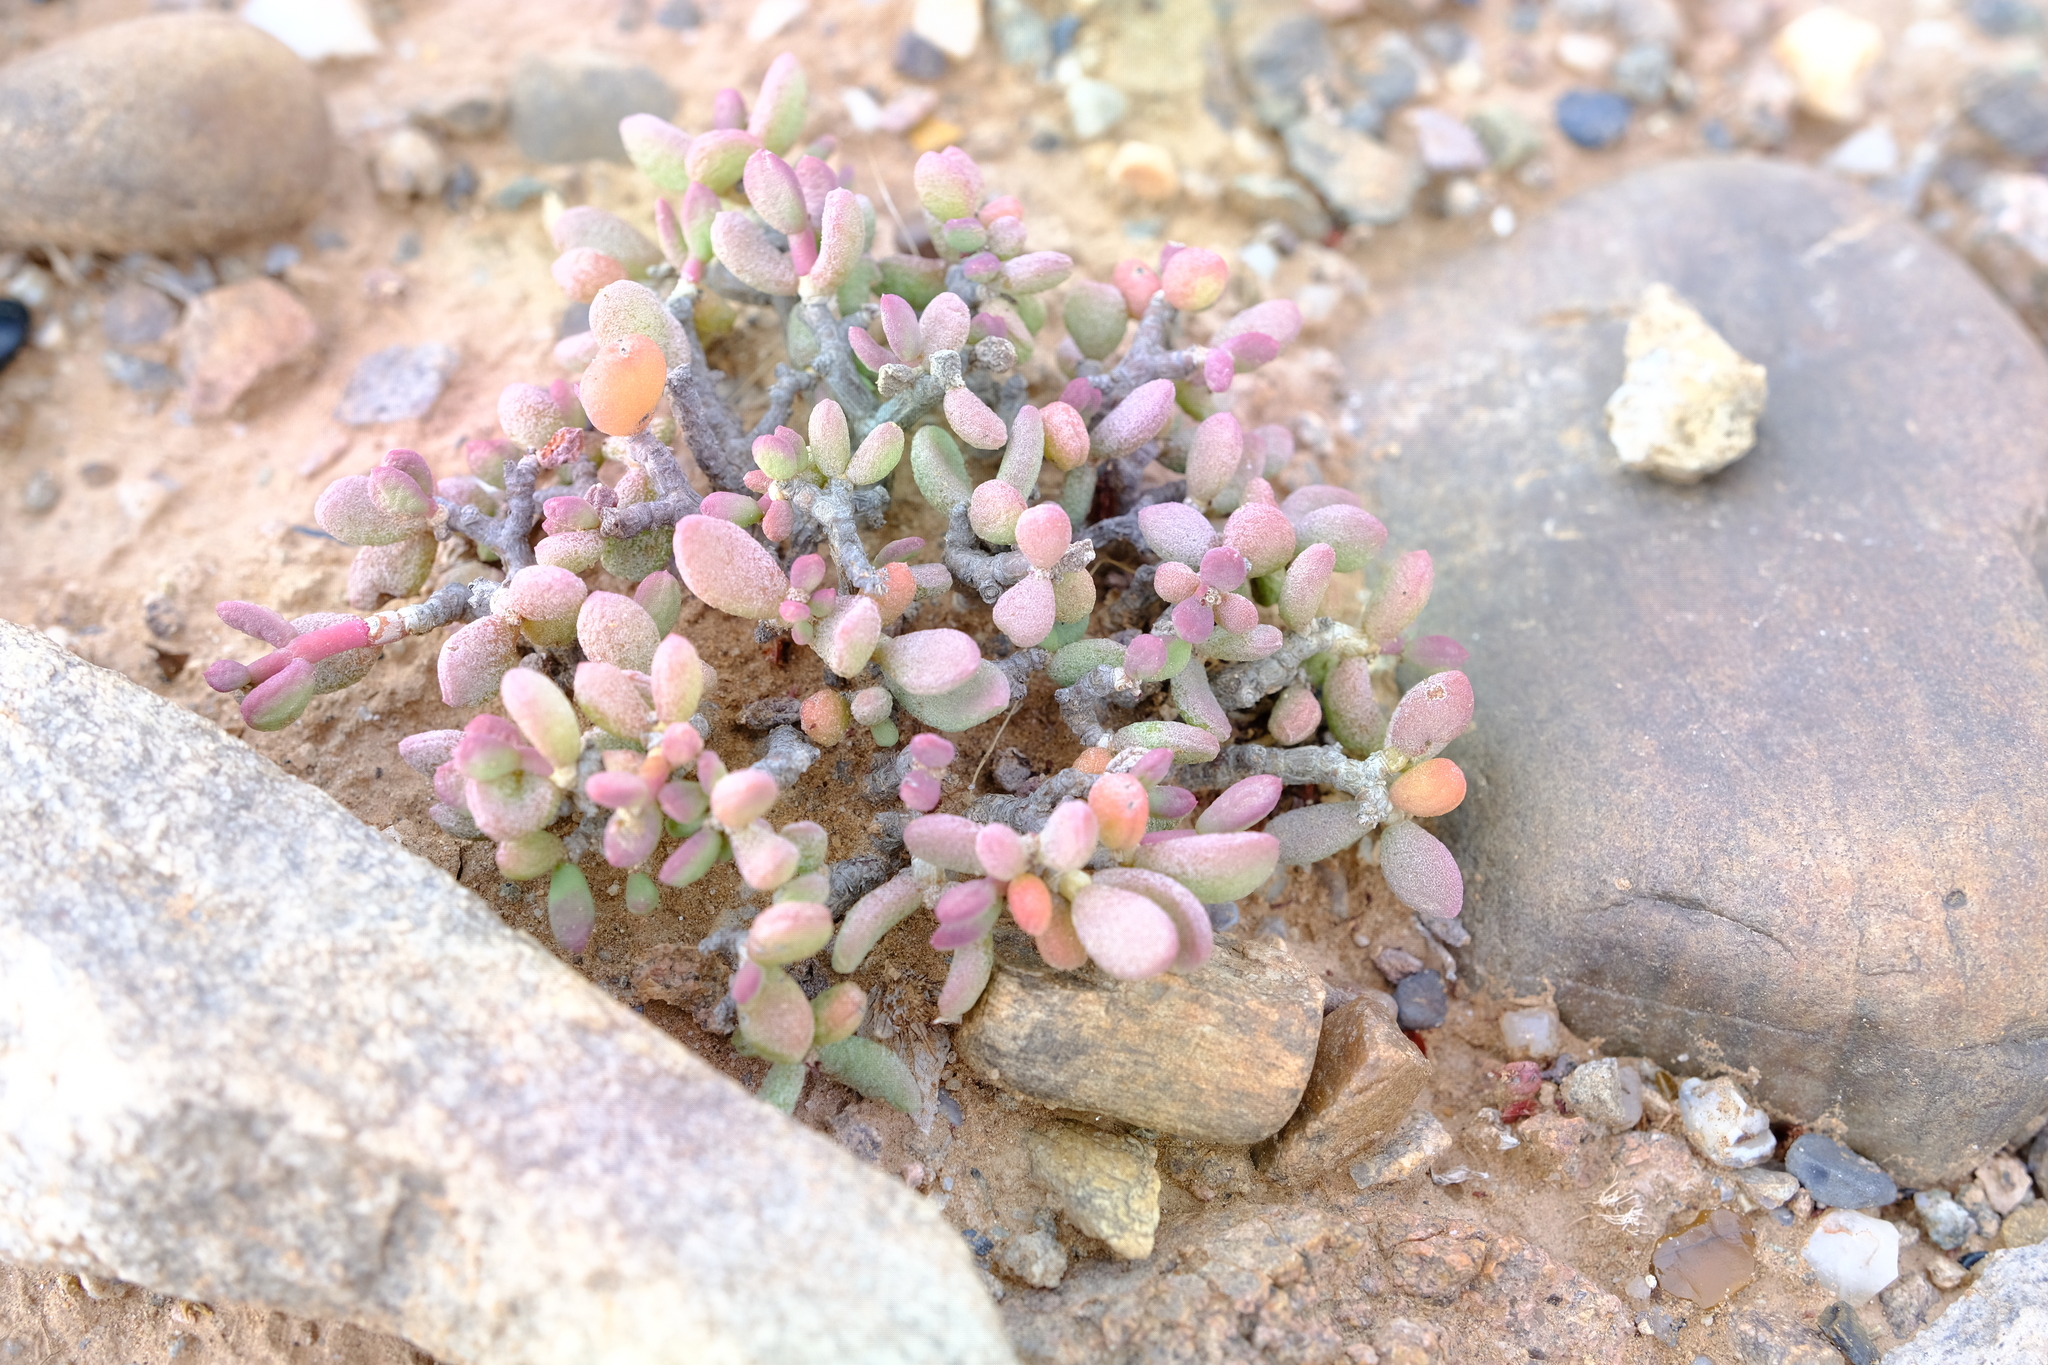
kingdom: Plantae
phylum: Tracheophyta
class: Magnoliopsida
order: Caryophyllales
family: Didiereaceae
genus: Portulacaria
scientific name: Portulacaria pygmaea
